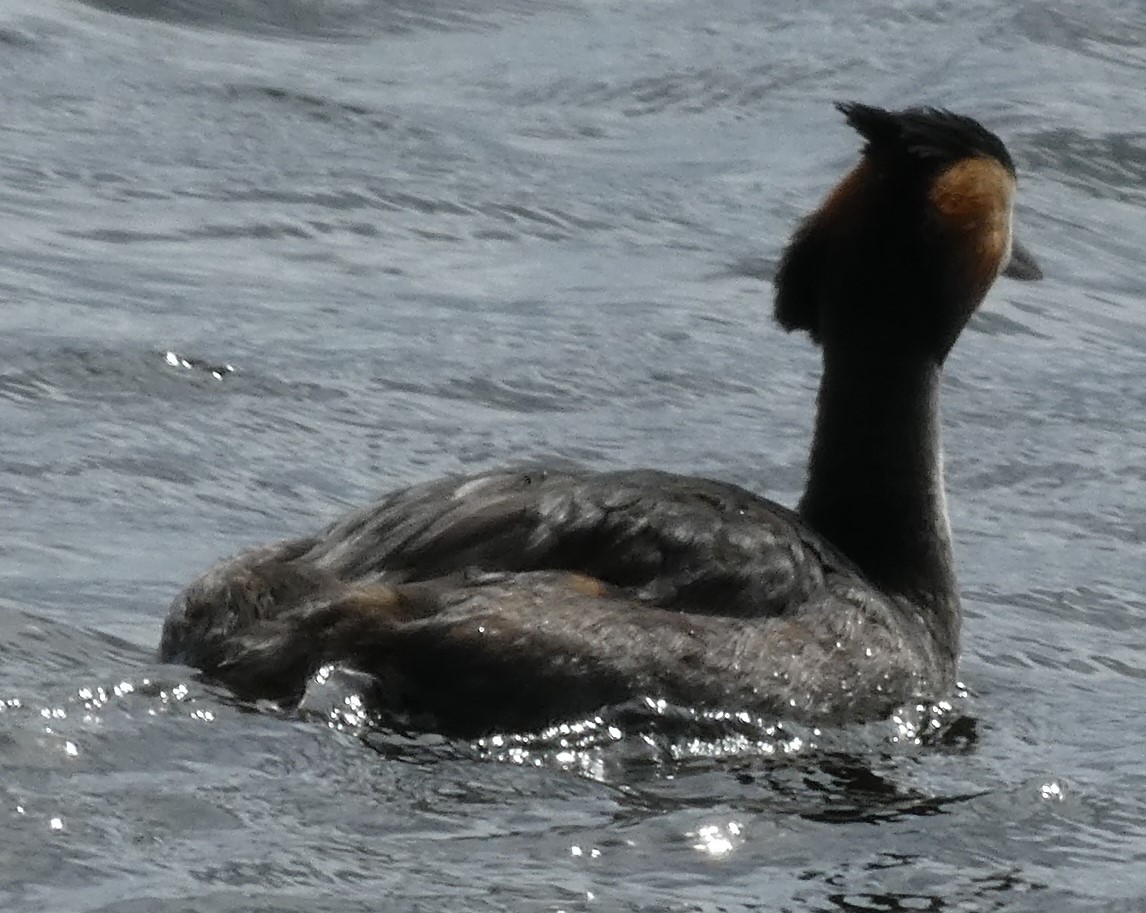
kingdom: Animalia
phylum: Chordata
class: Aves
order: Podicipediformes
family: Podicipedidae
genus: Podiceps
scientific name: Podiceps cristatus
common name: Great crested grebe
